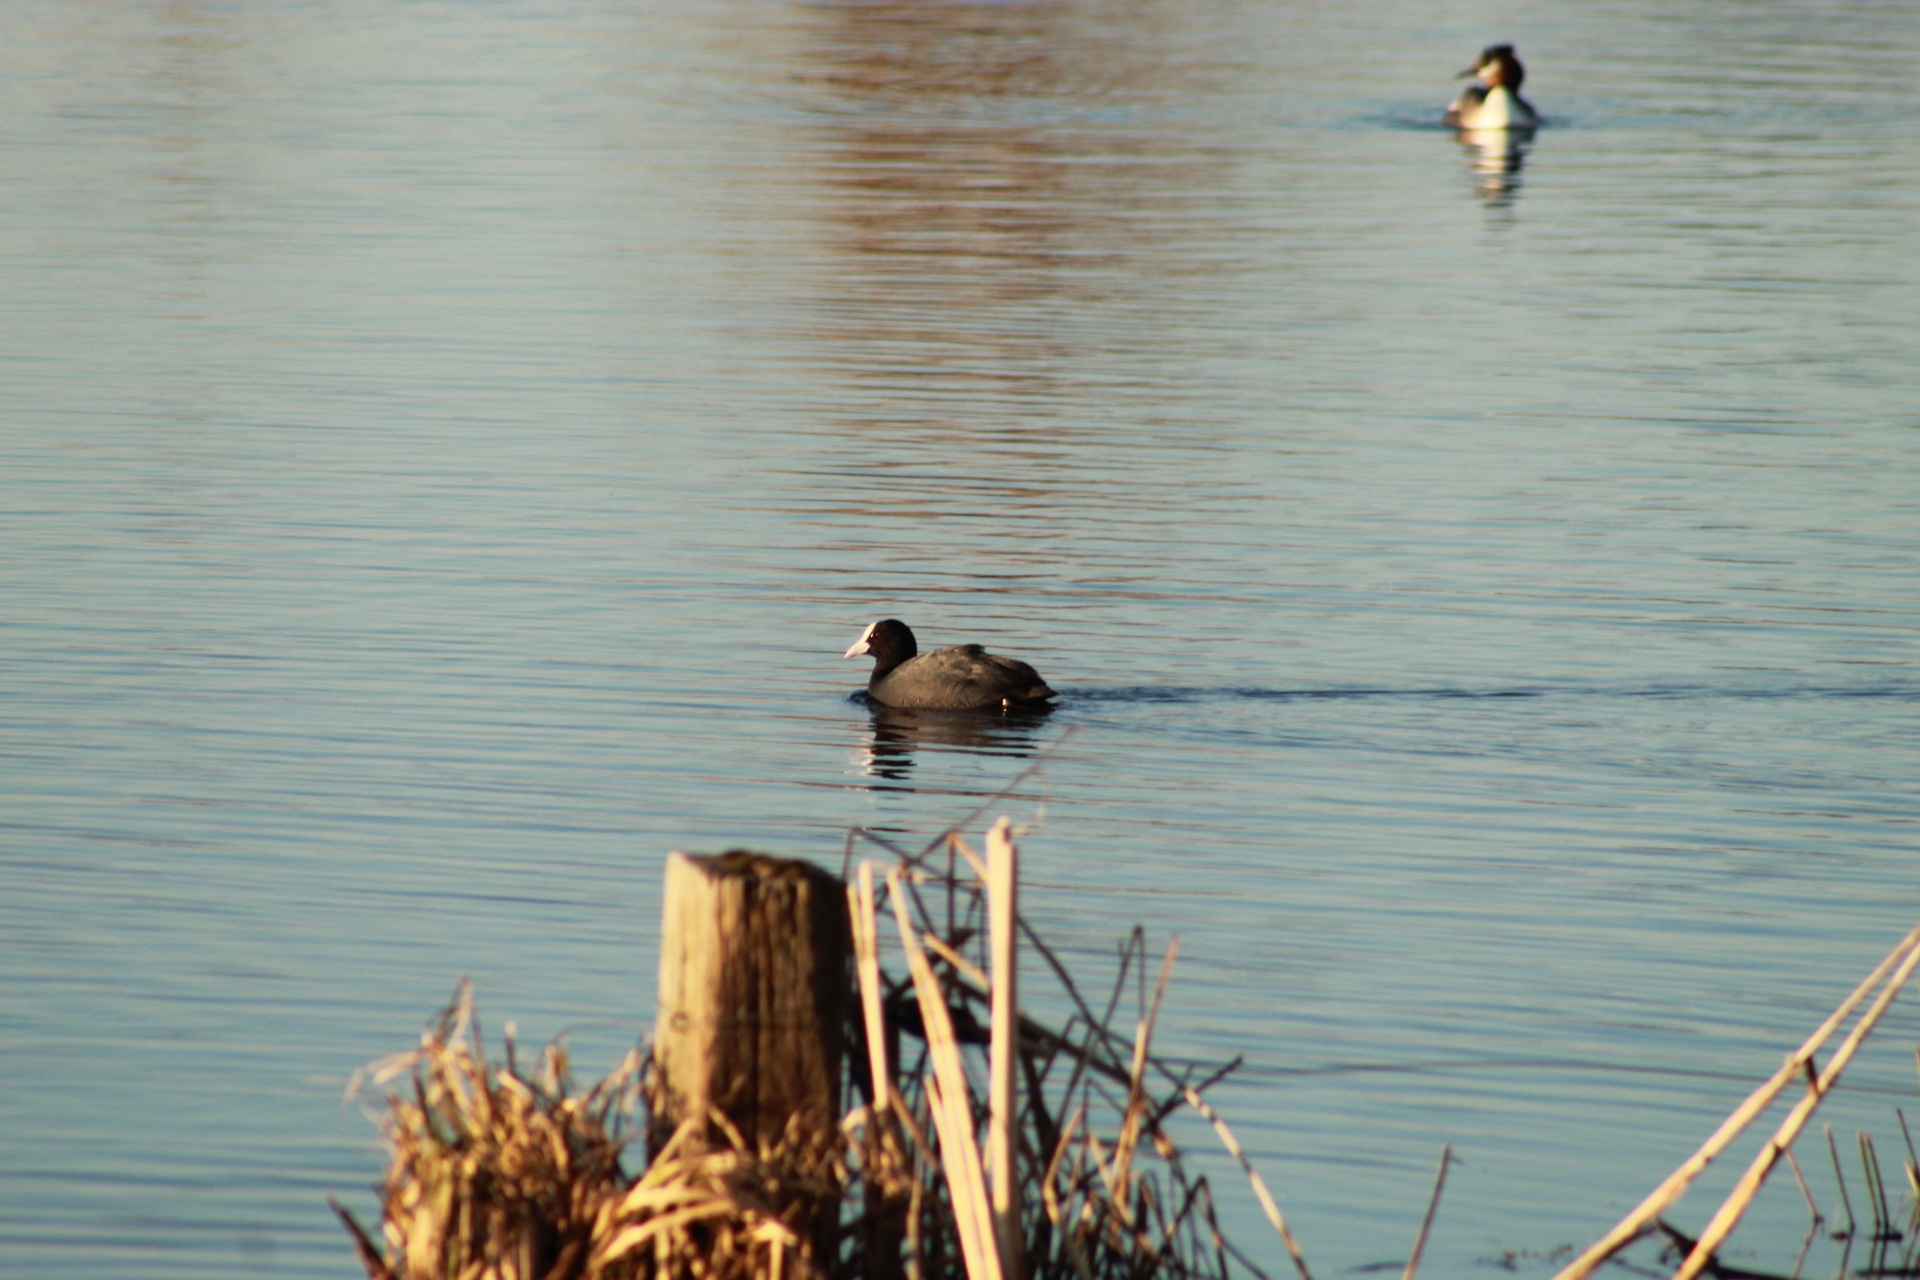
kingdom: Animalia
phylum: Chordata
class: Aves
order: Gruiformes
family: Rallidae
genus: Fulica
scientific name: Fulica atra
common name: Eurasian coot
